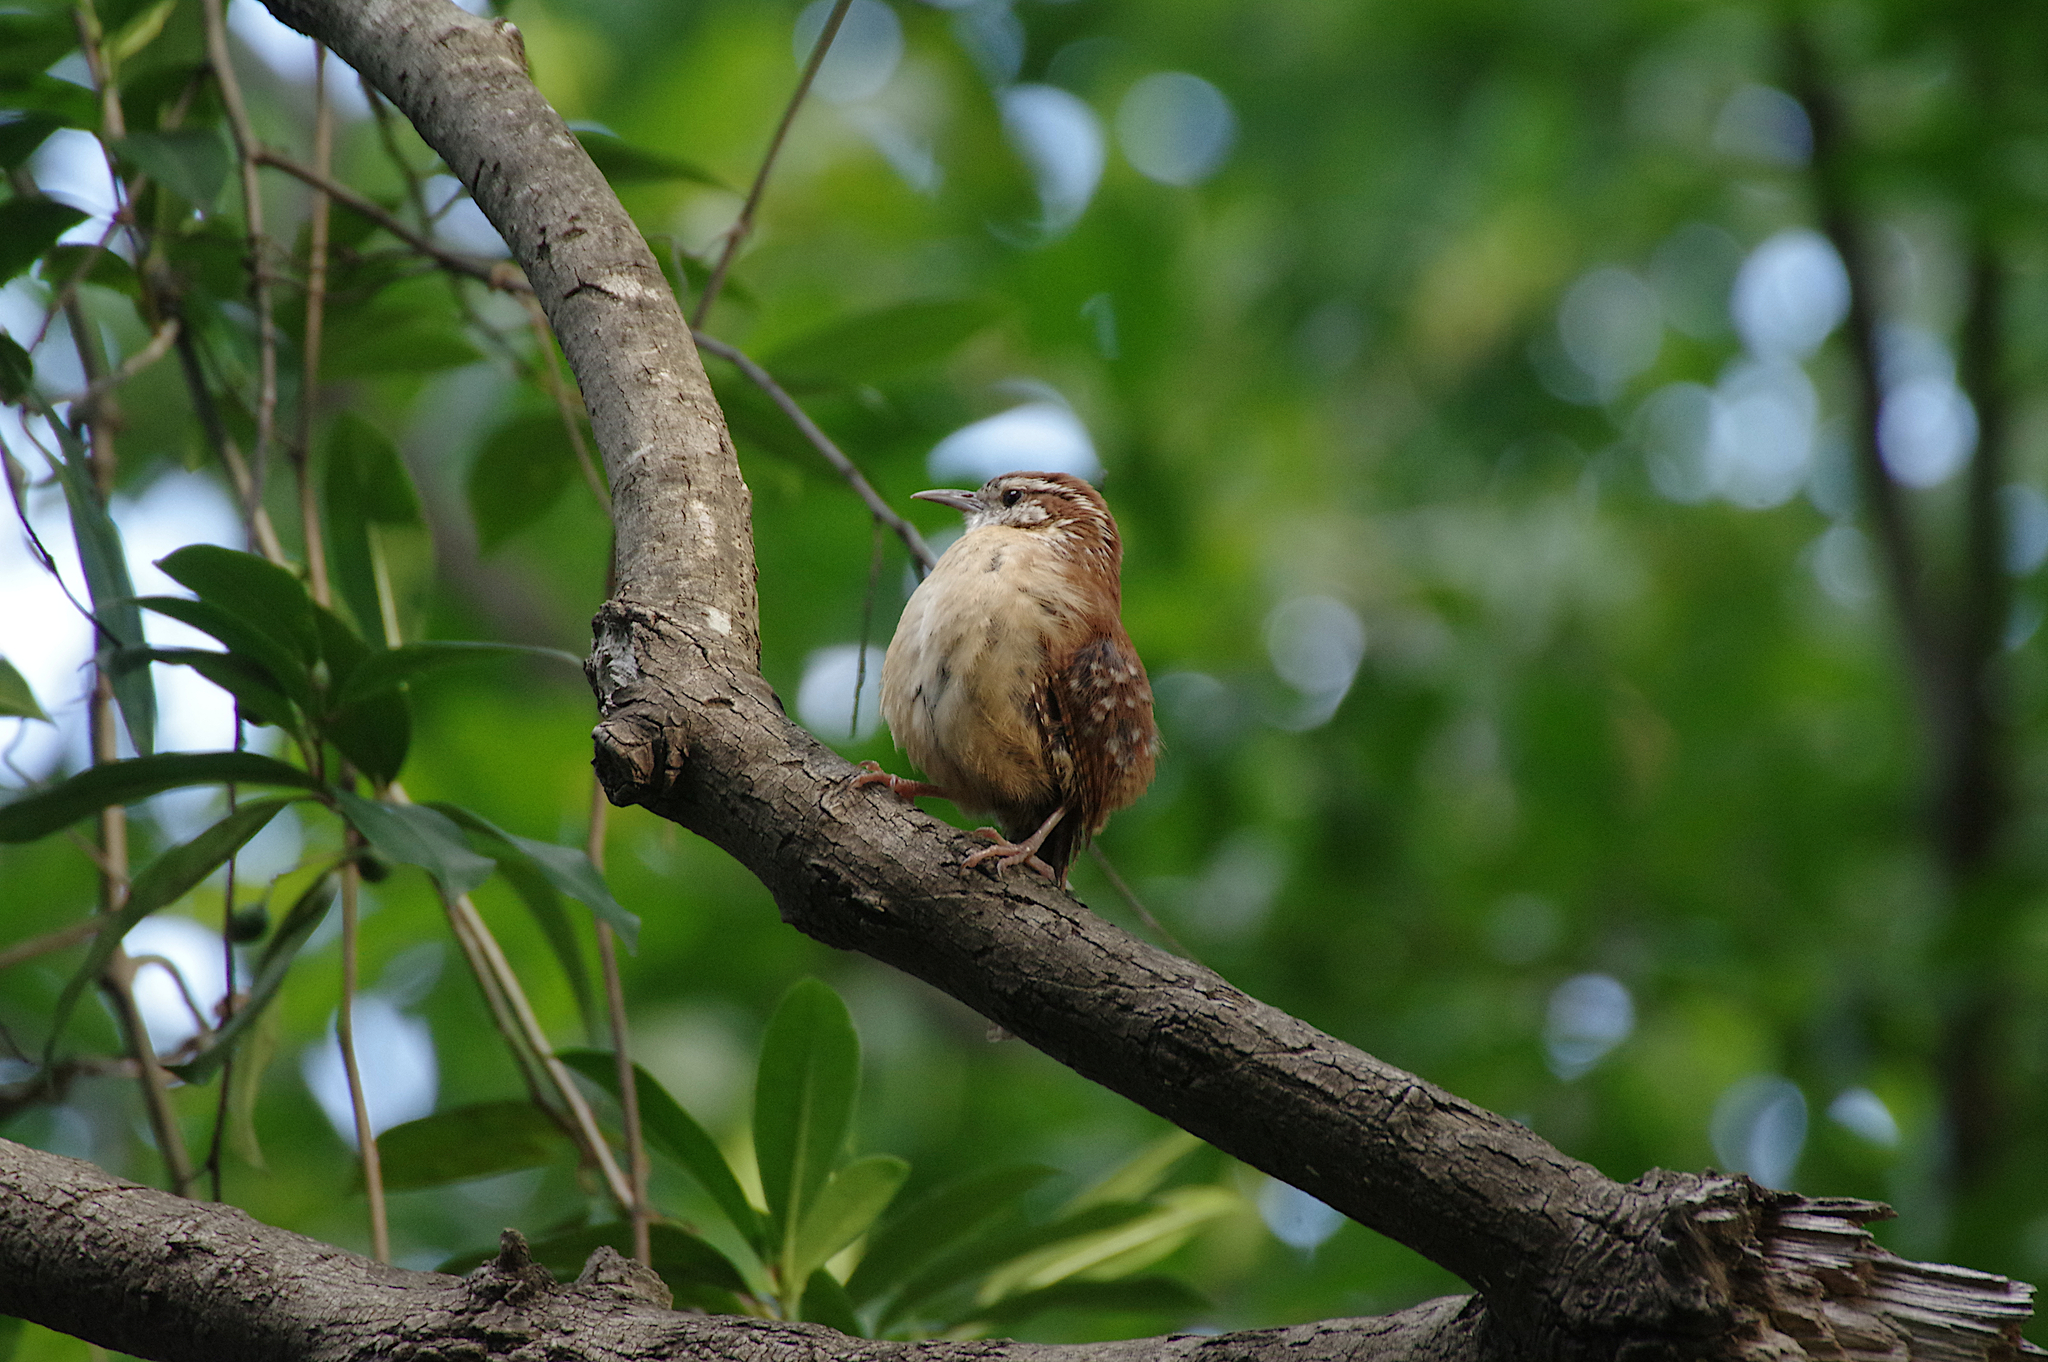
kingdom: Animalia
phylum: Chordata
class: Aves
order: Passeriformes
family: Troglodytidae
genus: Thryothorus
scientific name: Thryothorus ludovicianus
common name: Carolina wren
